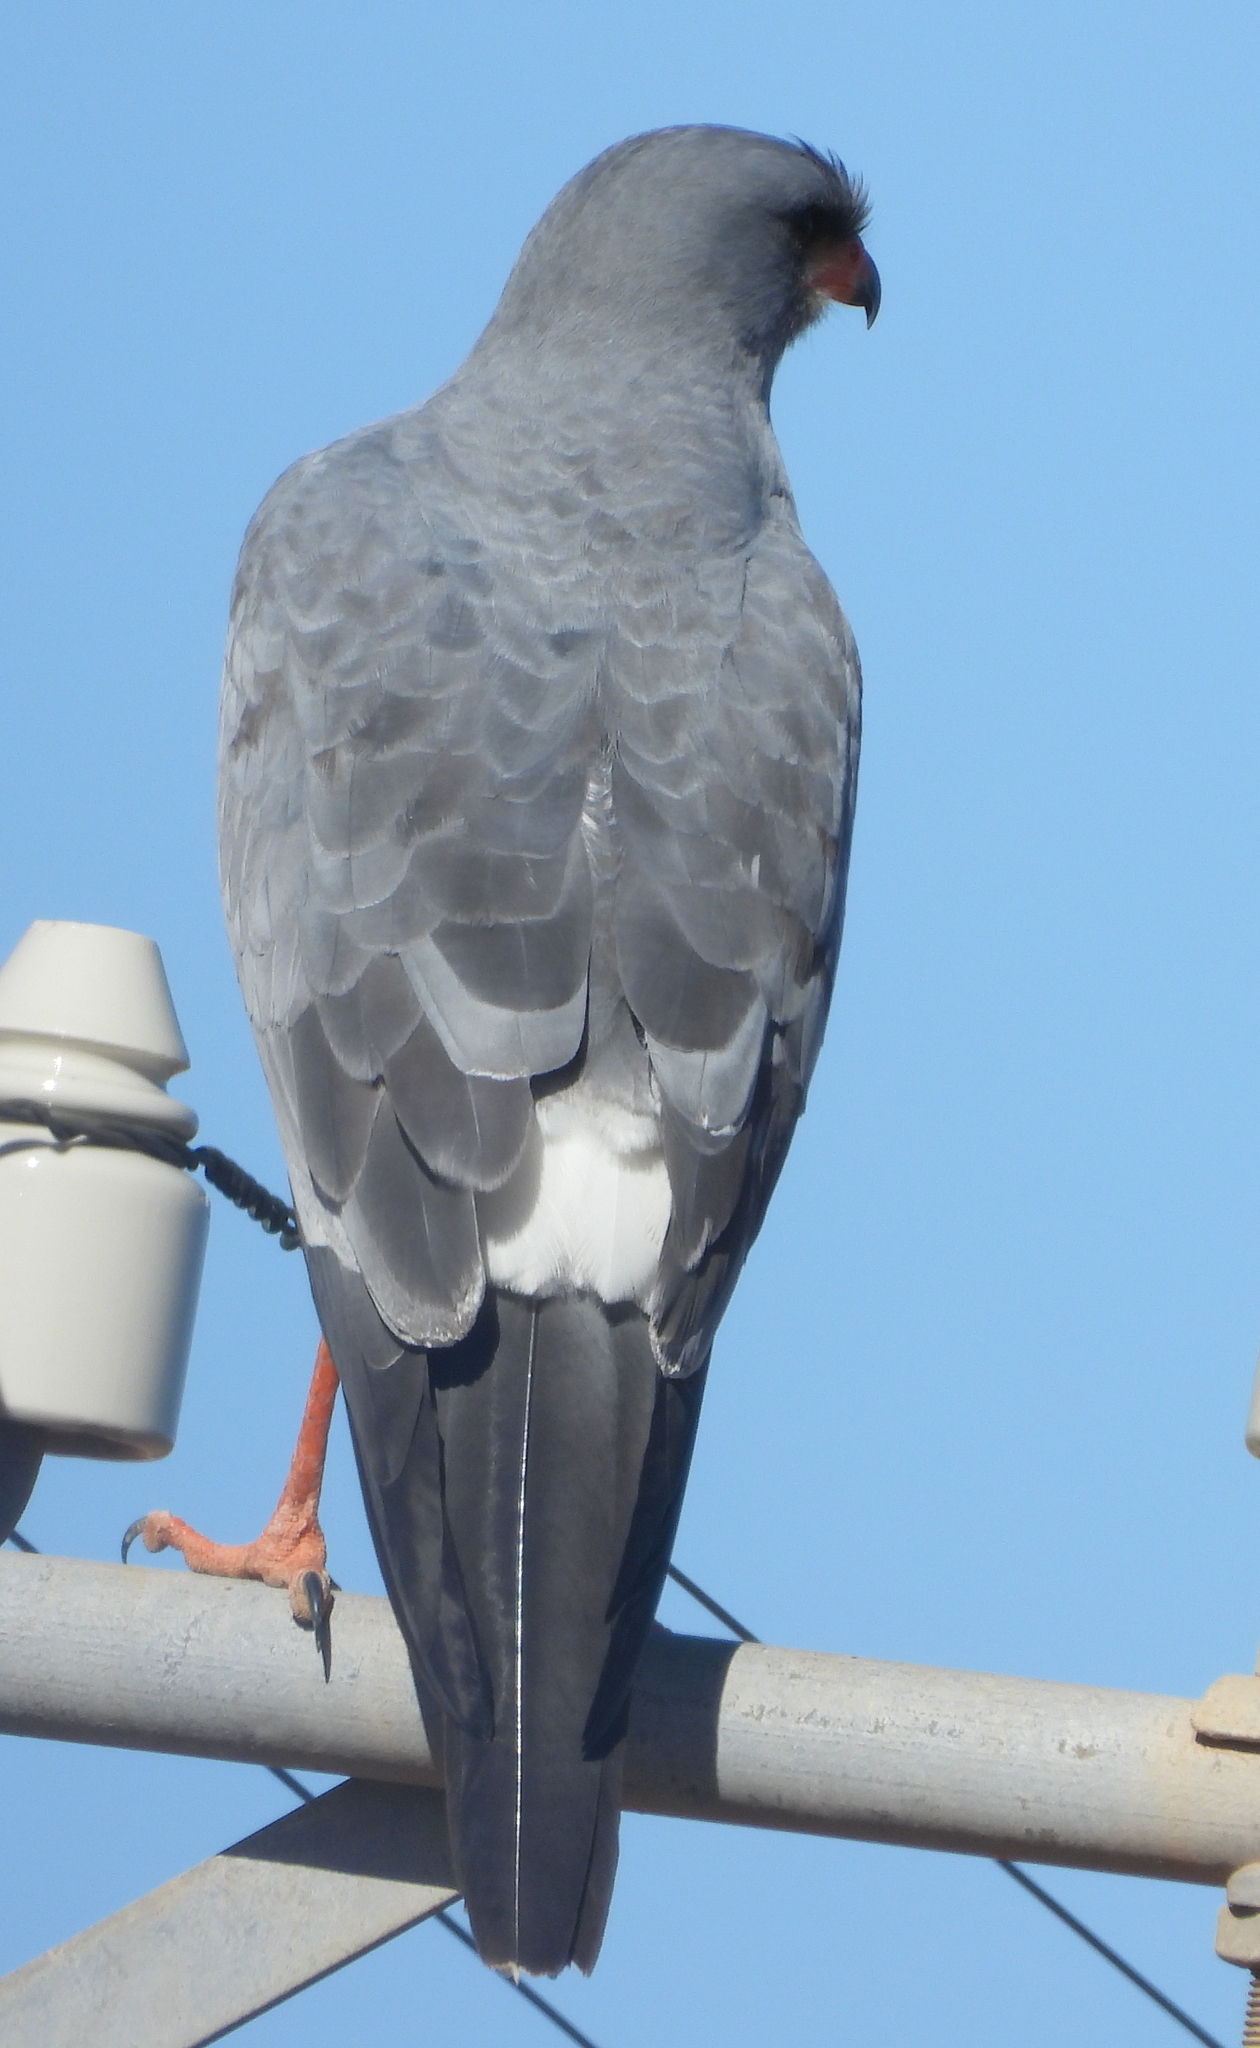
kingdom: Animalia
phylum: Chordata
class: Aves
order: Accipitriformes
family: Accipitridae
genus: Melierax
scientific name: Melierax canorus
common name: Pale chanting-goshawk
